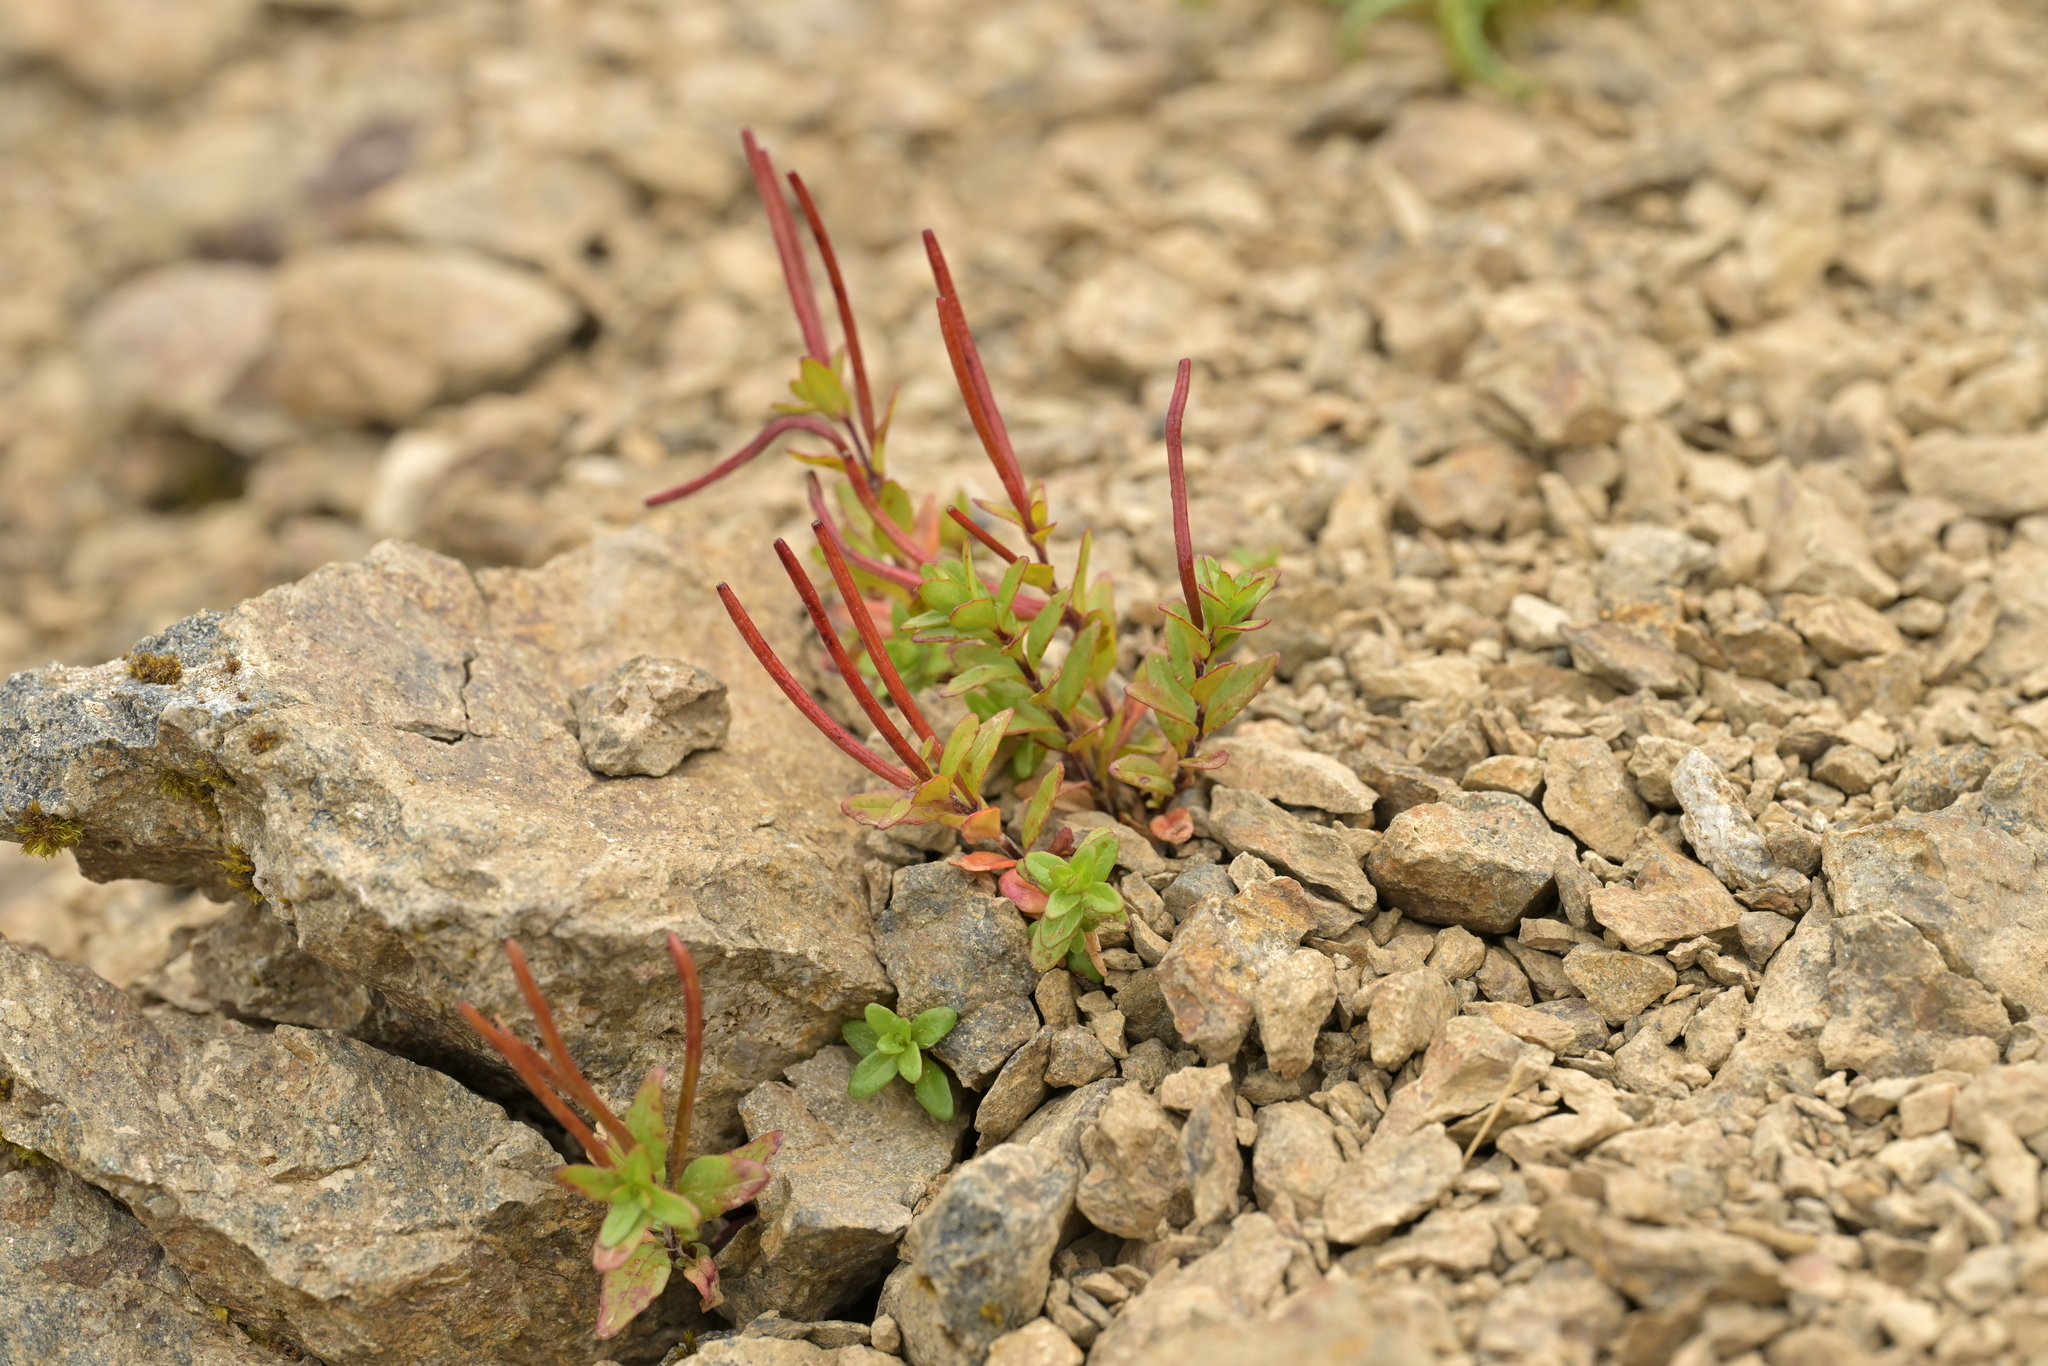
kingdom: Plantae
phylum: Tracheophyta
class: Magnoliopsida
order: Myrtales
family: Onagraceae
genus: Epilobium
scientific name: Epilobium glabellum
